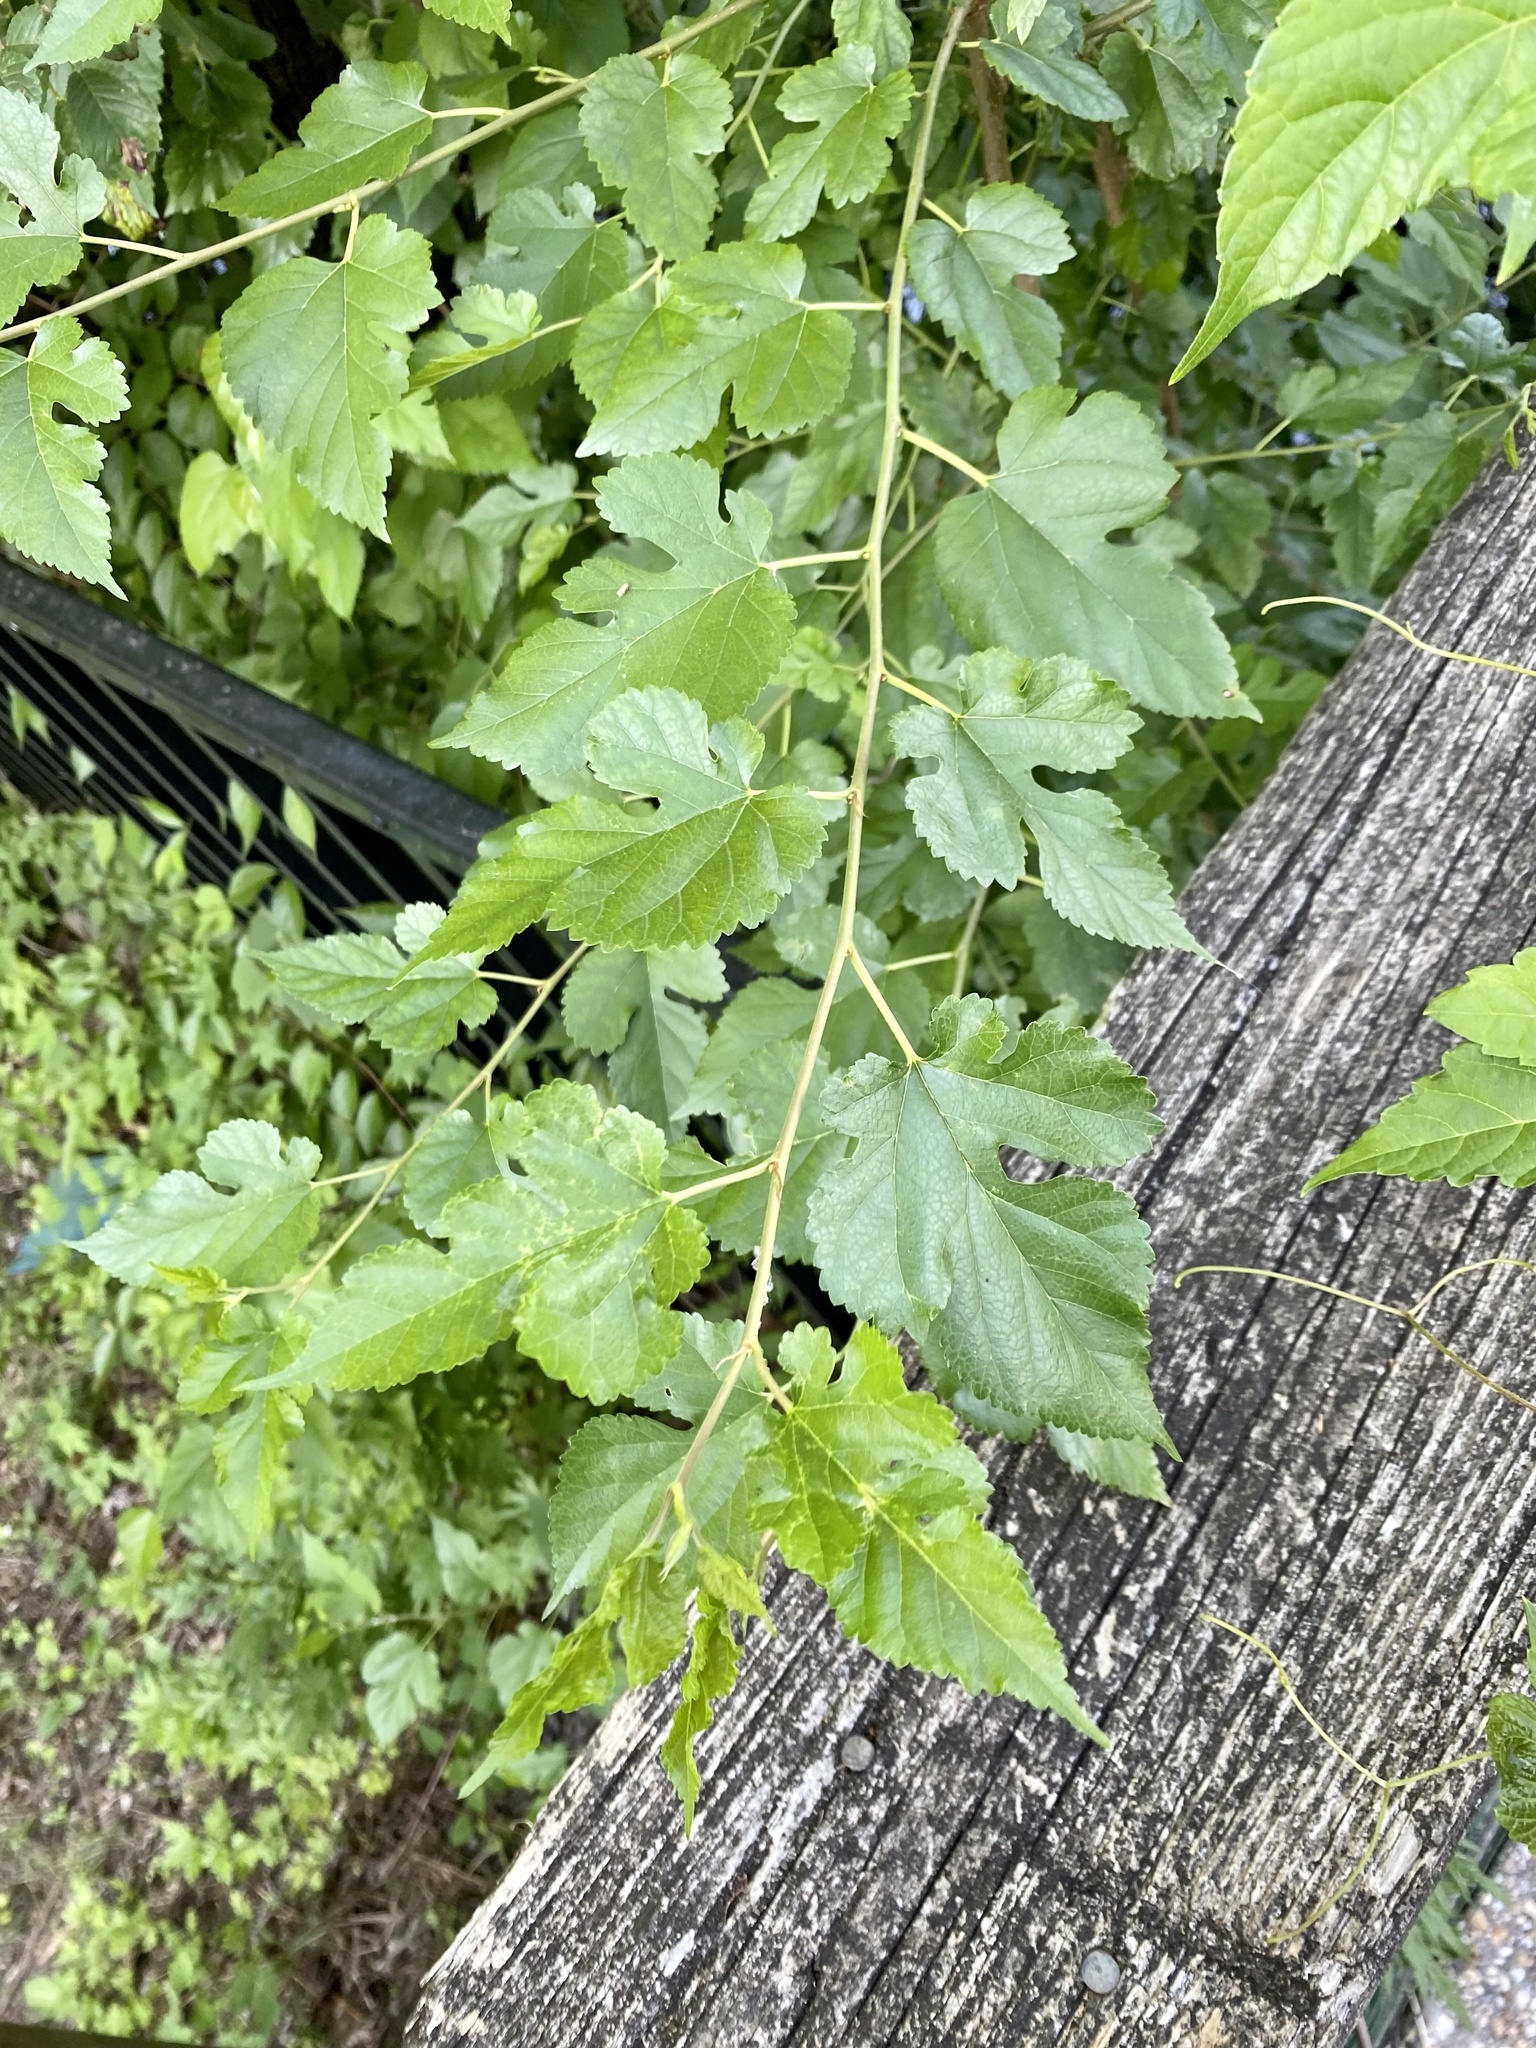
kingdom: Plantae
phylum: Tracheophyta
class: Magnoliopsida
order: Rosales
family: Moraceae
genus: Morus
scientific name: Morus alba
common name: White mulberry
